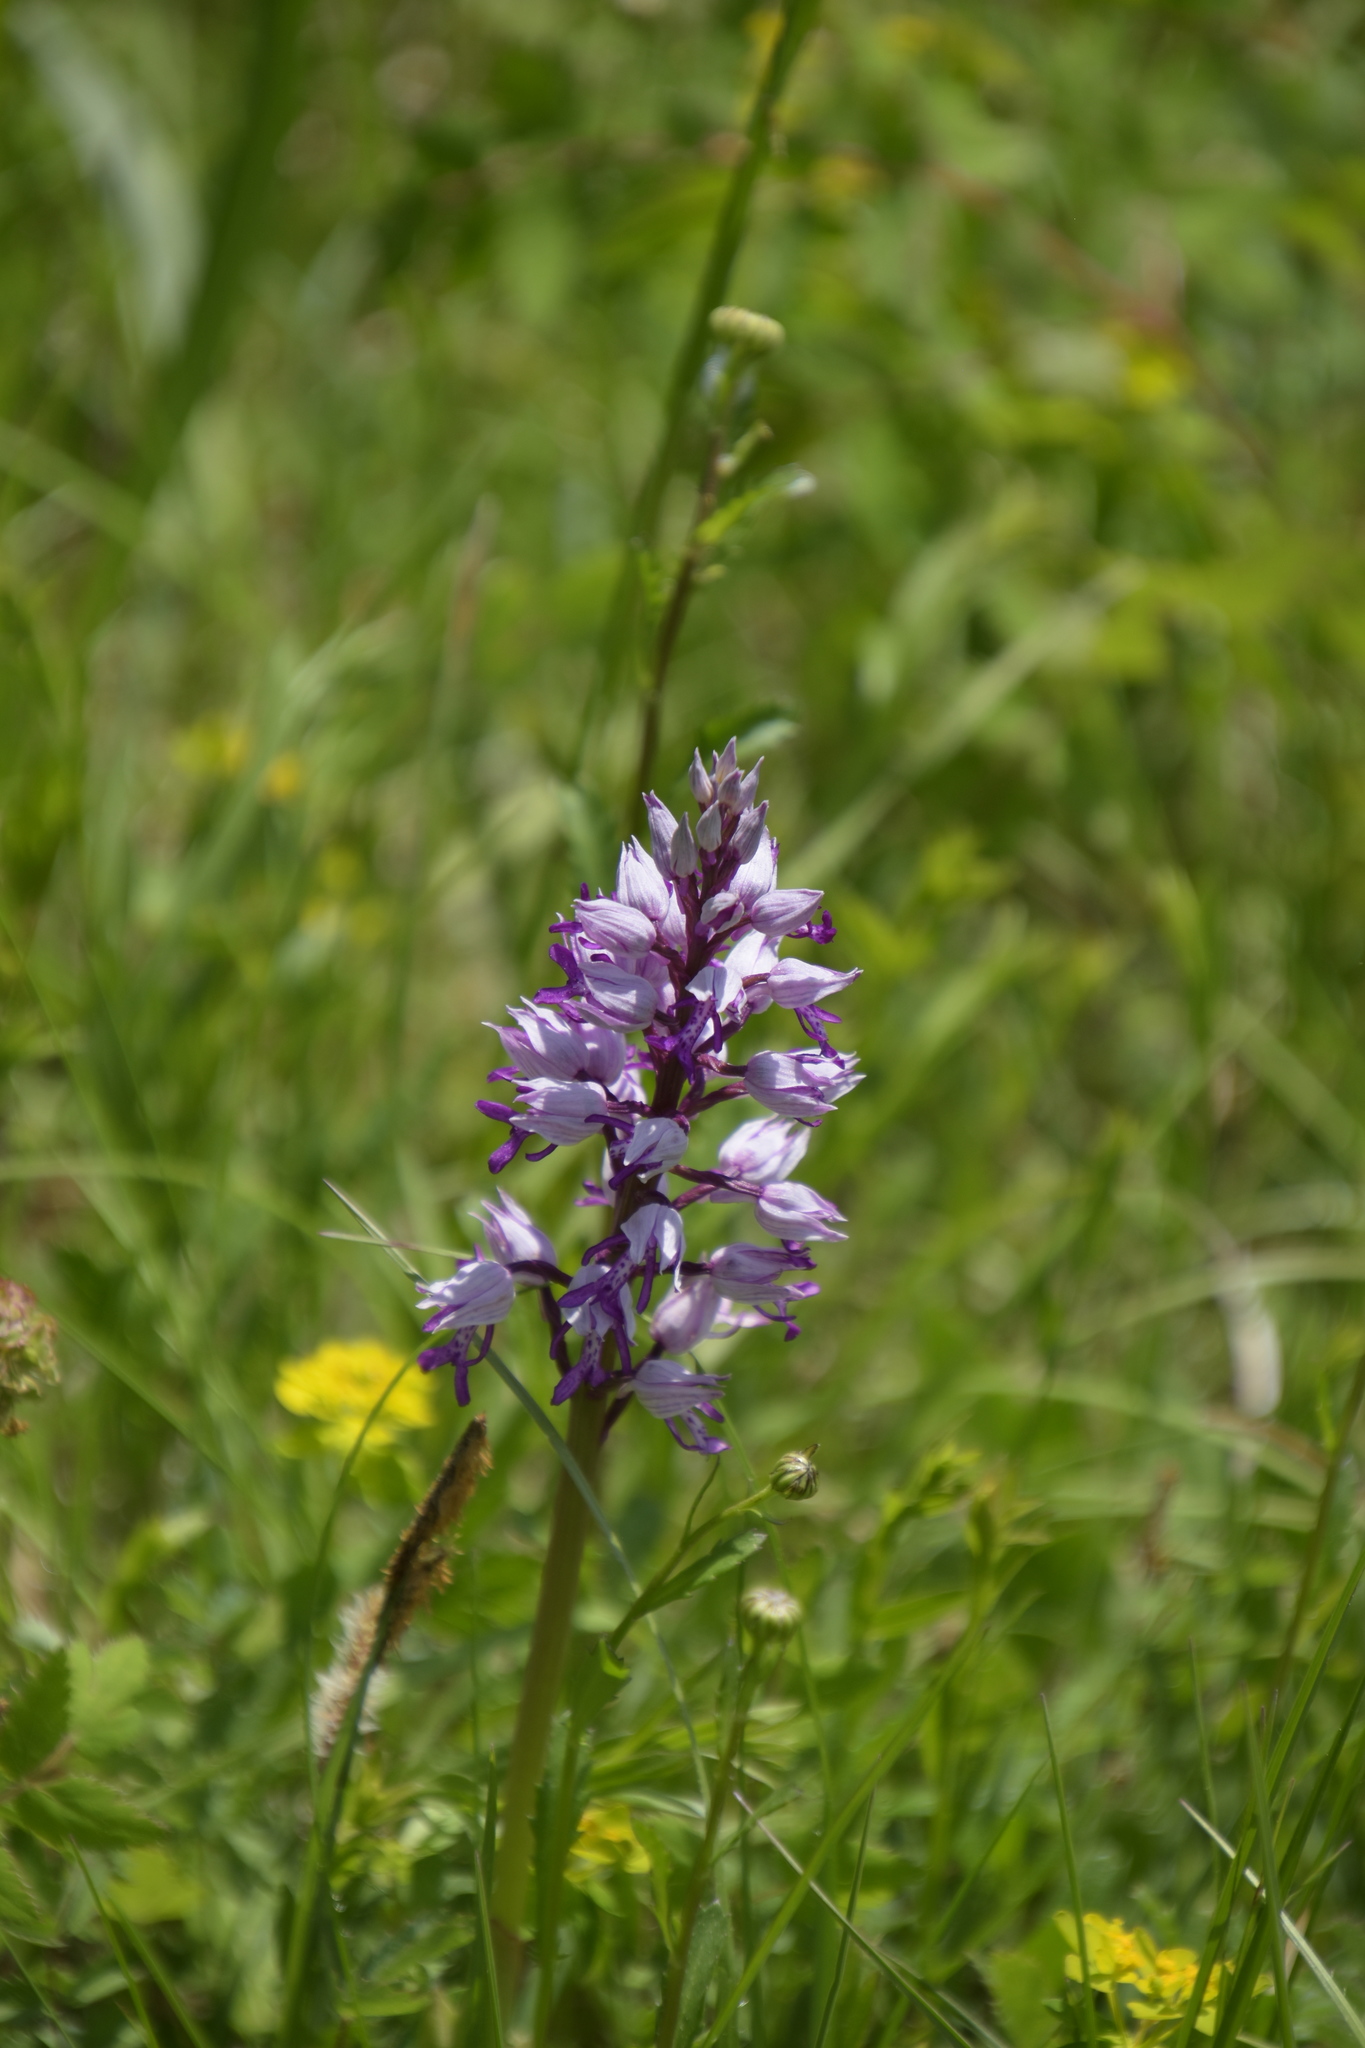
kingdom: Plantae
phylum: Tracheophyta
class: Liliopsida
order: Asparagales
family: Orchidaceae
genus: Orchis
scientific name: Orchis militaris
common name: Military orchid
